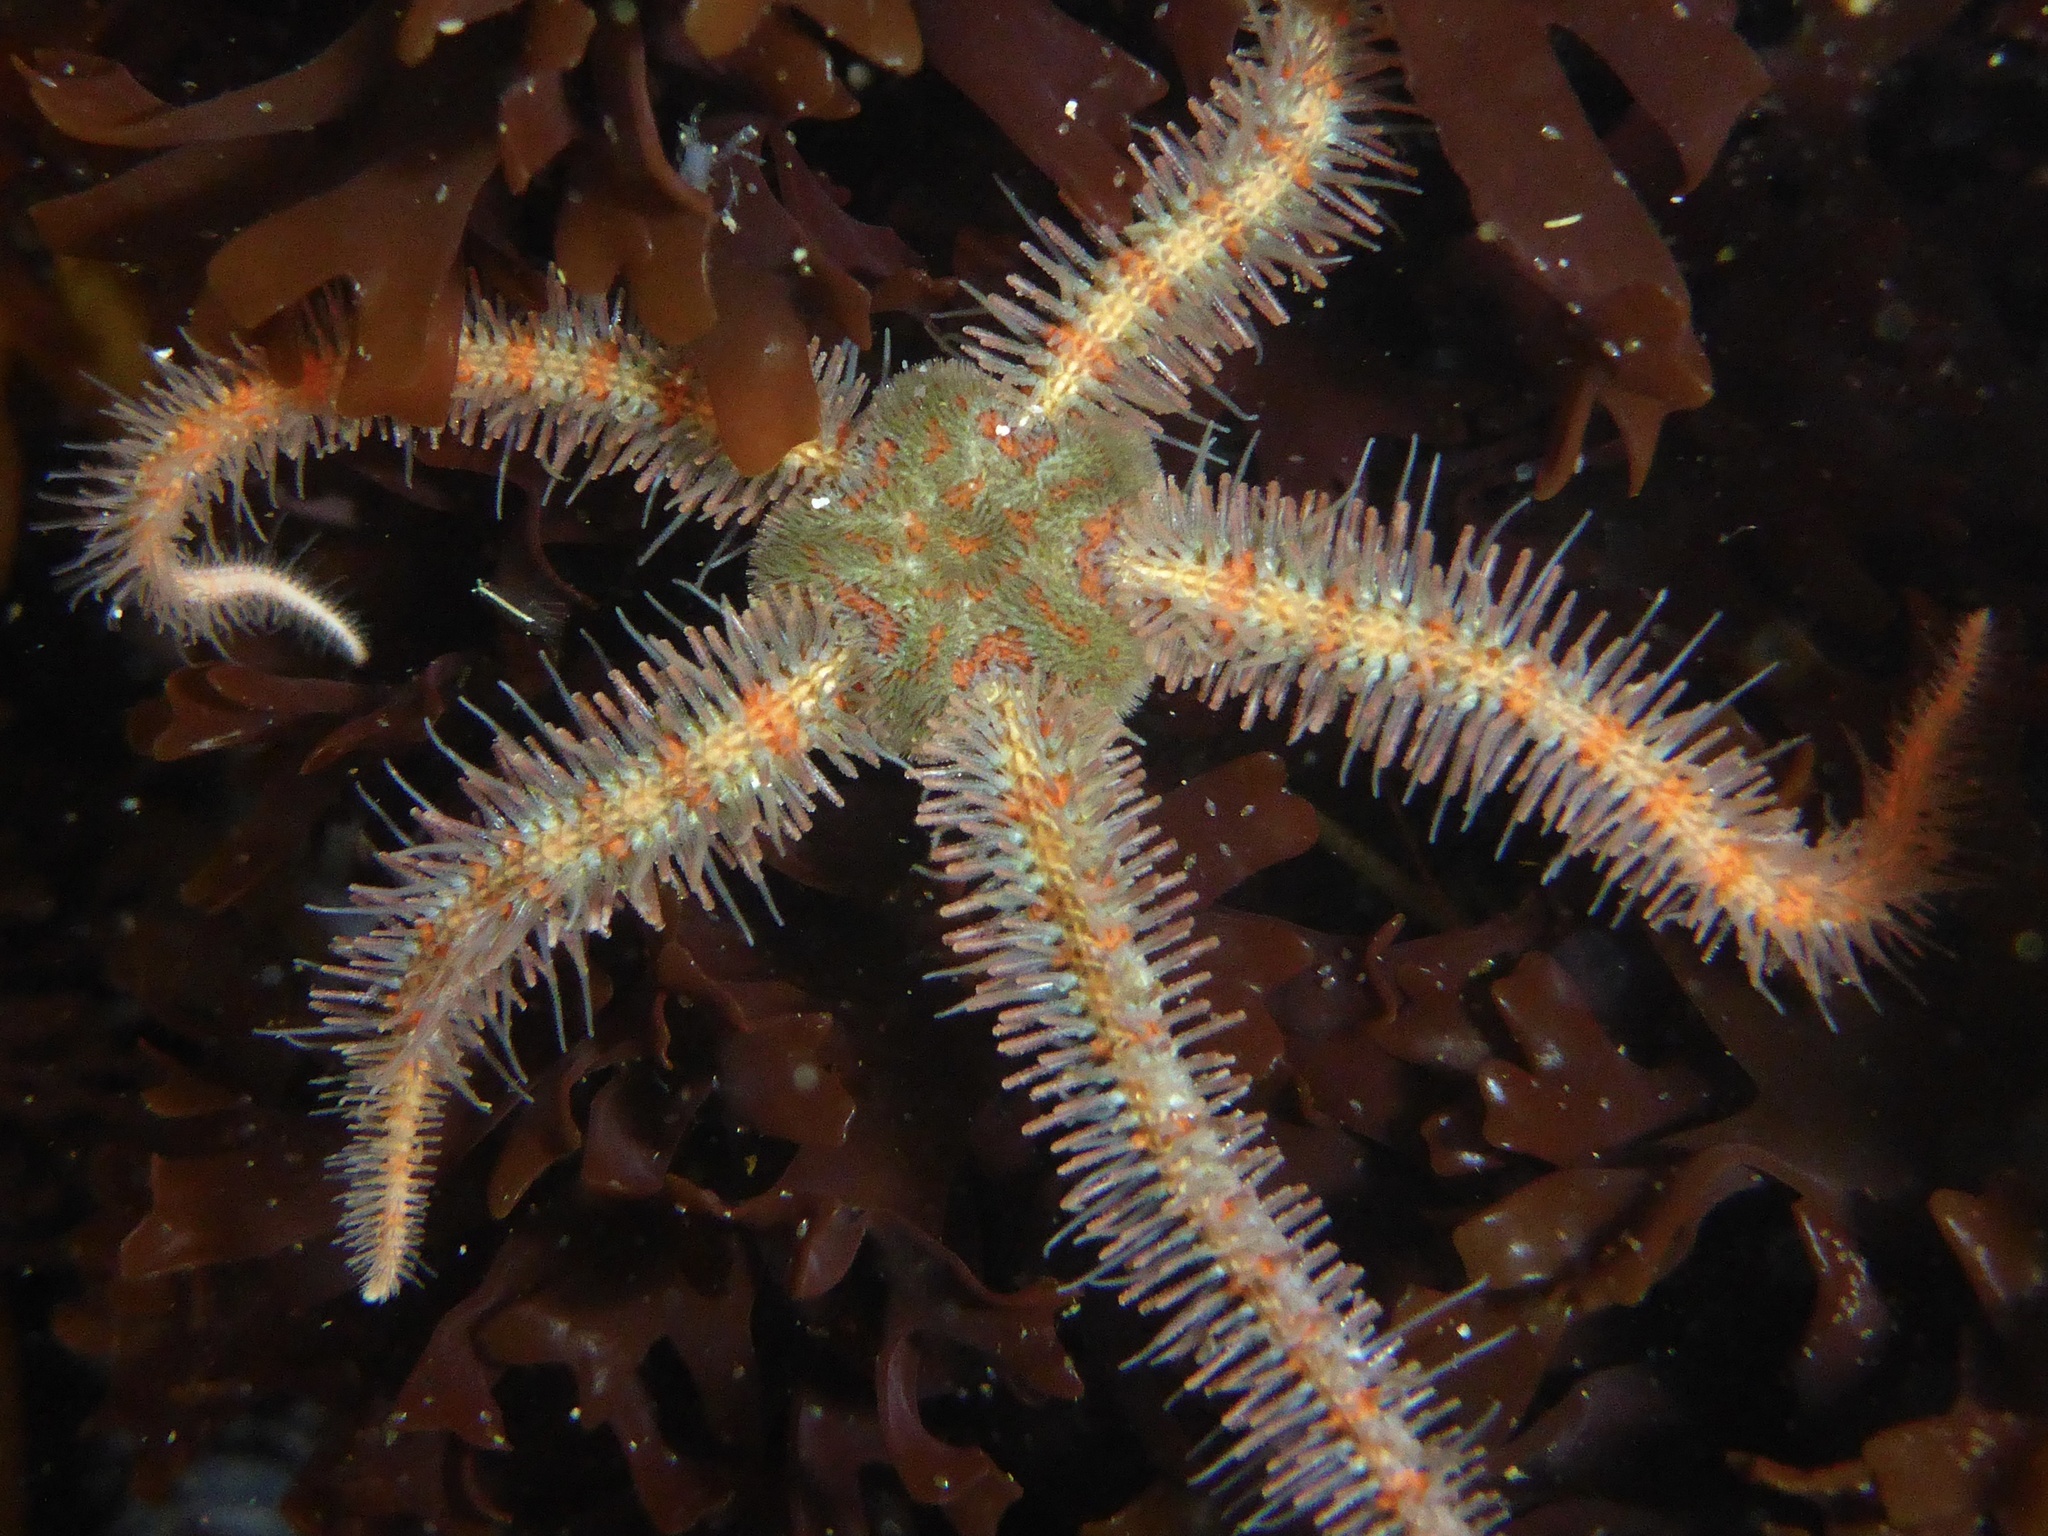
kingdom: Animalia
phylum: Echinodermata
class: Ophiuroidea
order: Amphilepidida
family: Ophiotrichidae
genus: Ophiothrix
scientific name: Ophiothrix spiculata
